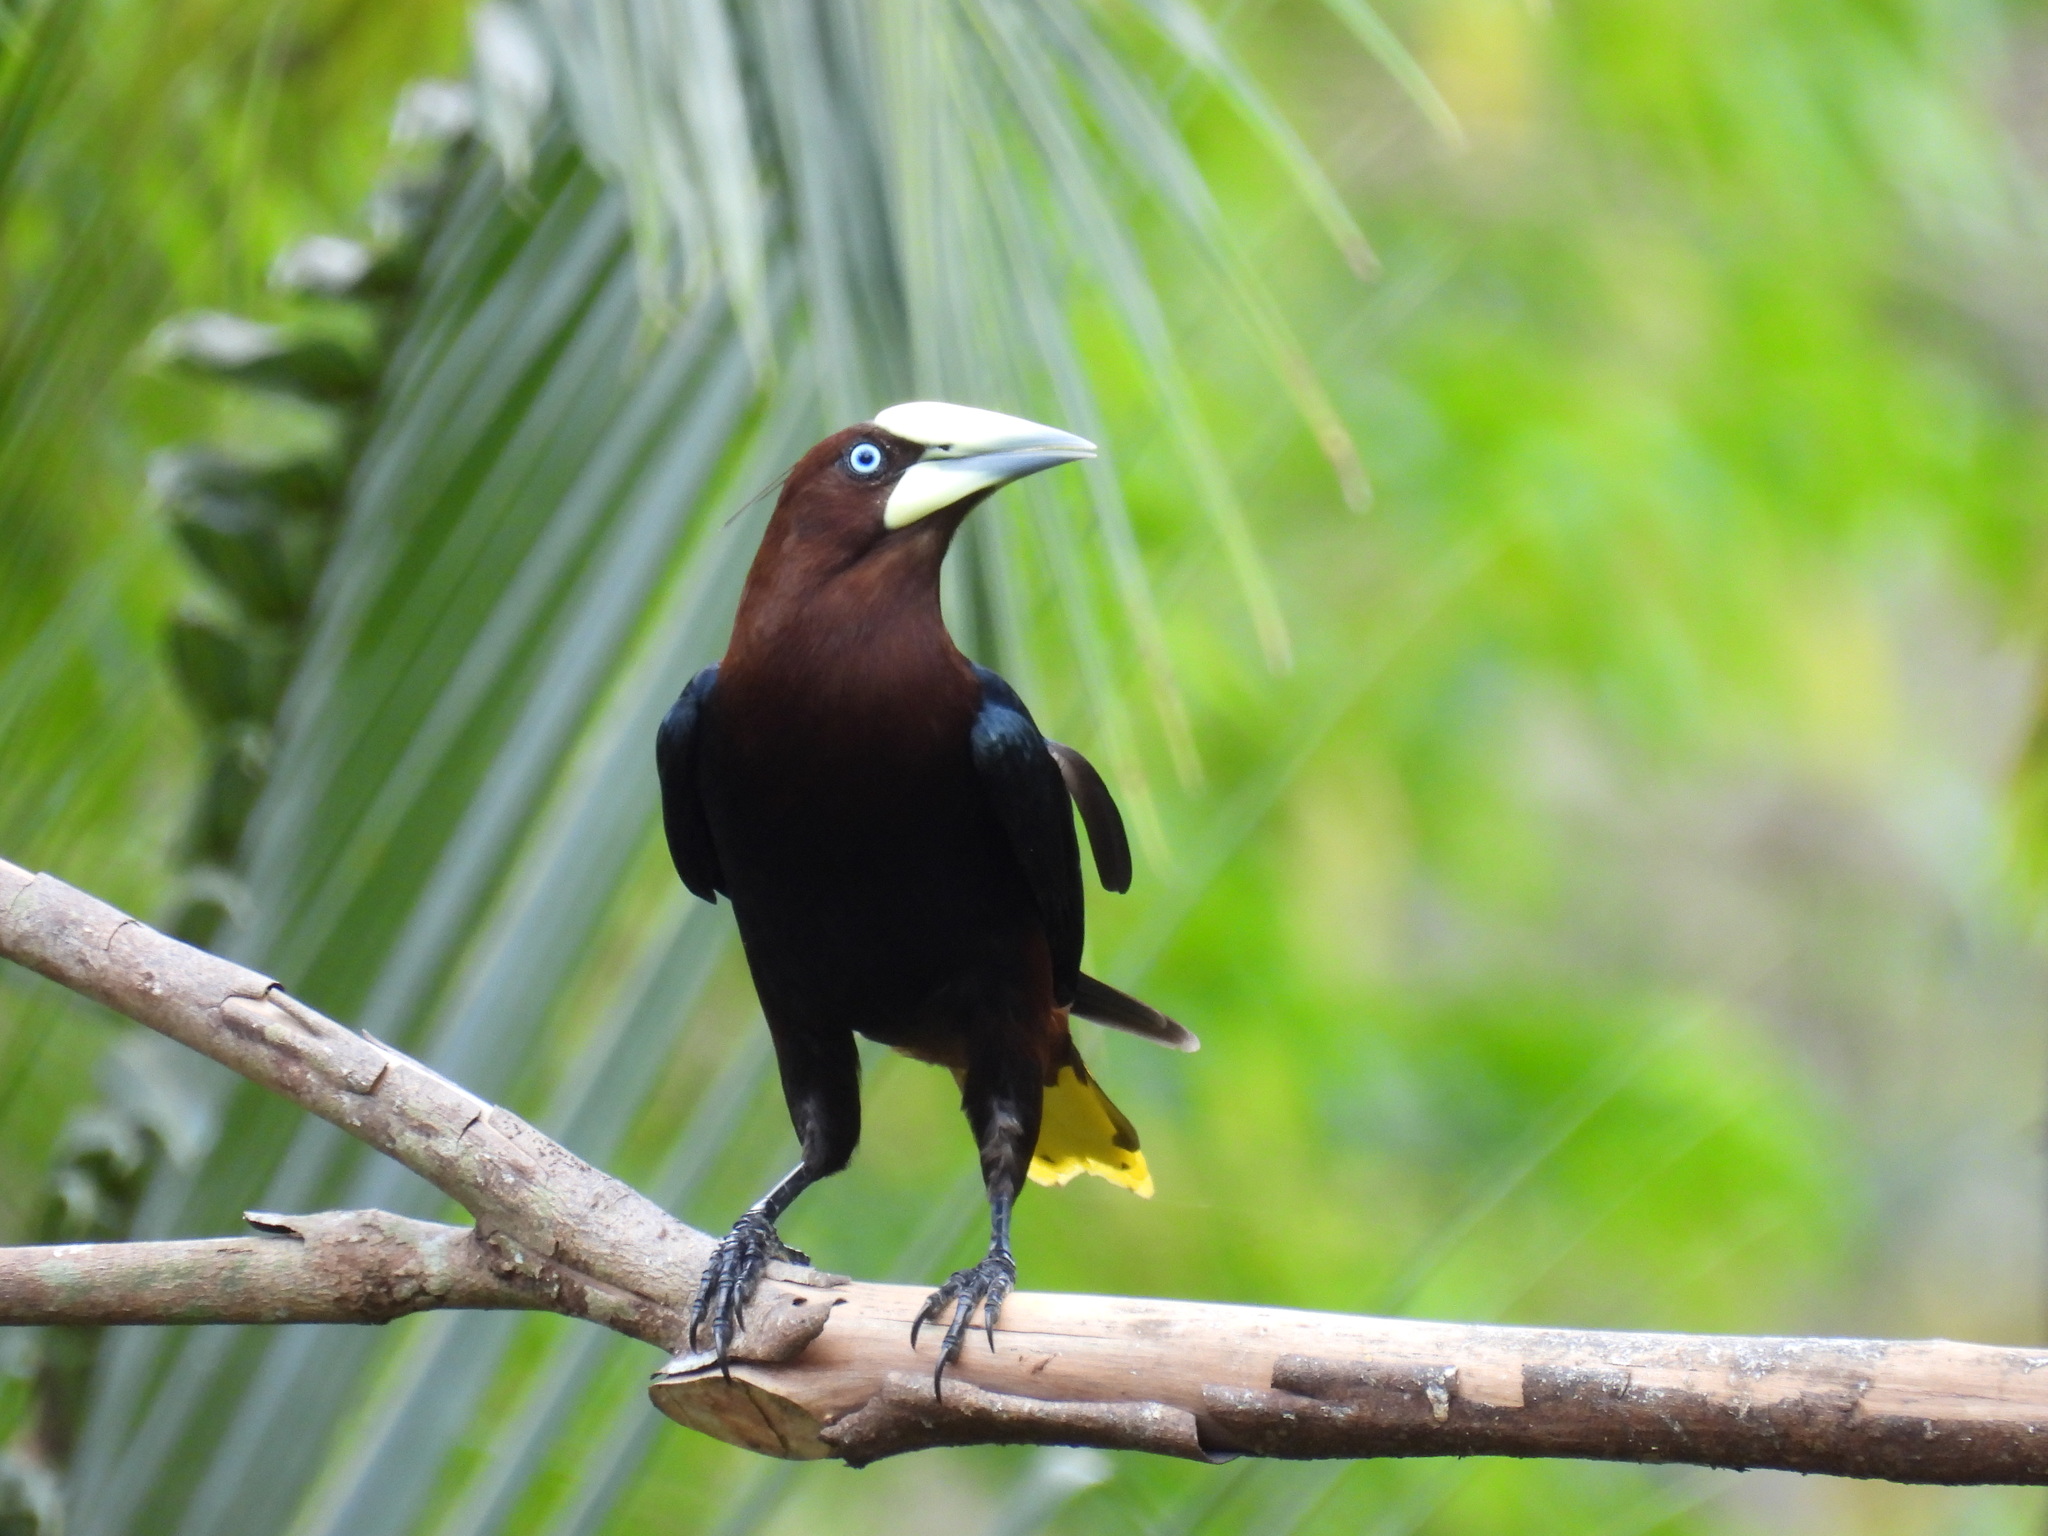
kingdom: Animalia
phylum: Chordata
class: Aves
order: Passeriformes
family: Icteridae
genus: Psarocolius
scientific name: Psarocolius wagleri
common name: Chestnut-headed oropendola
